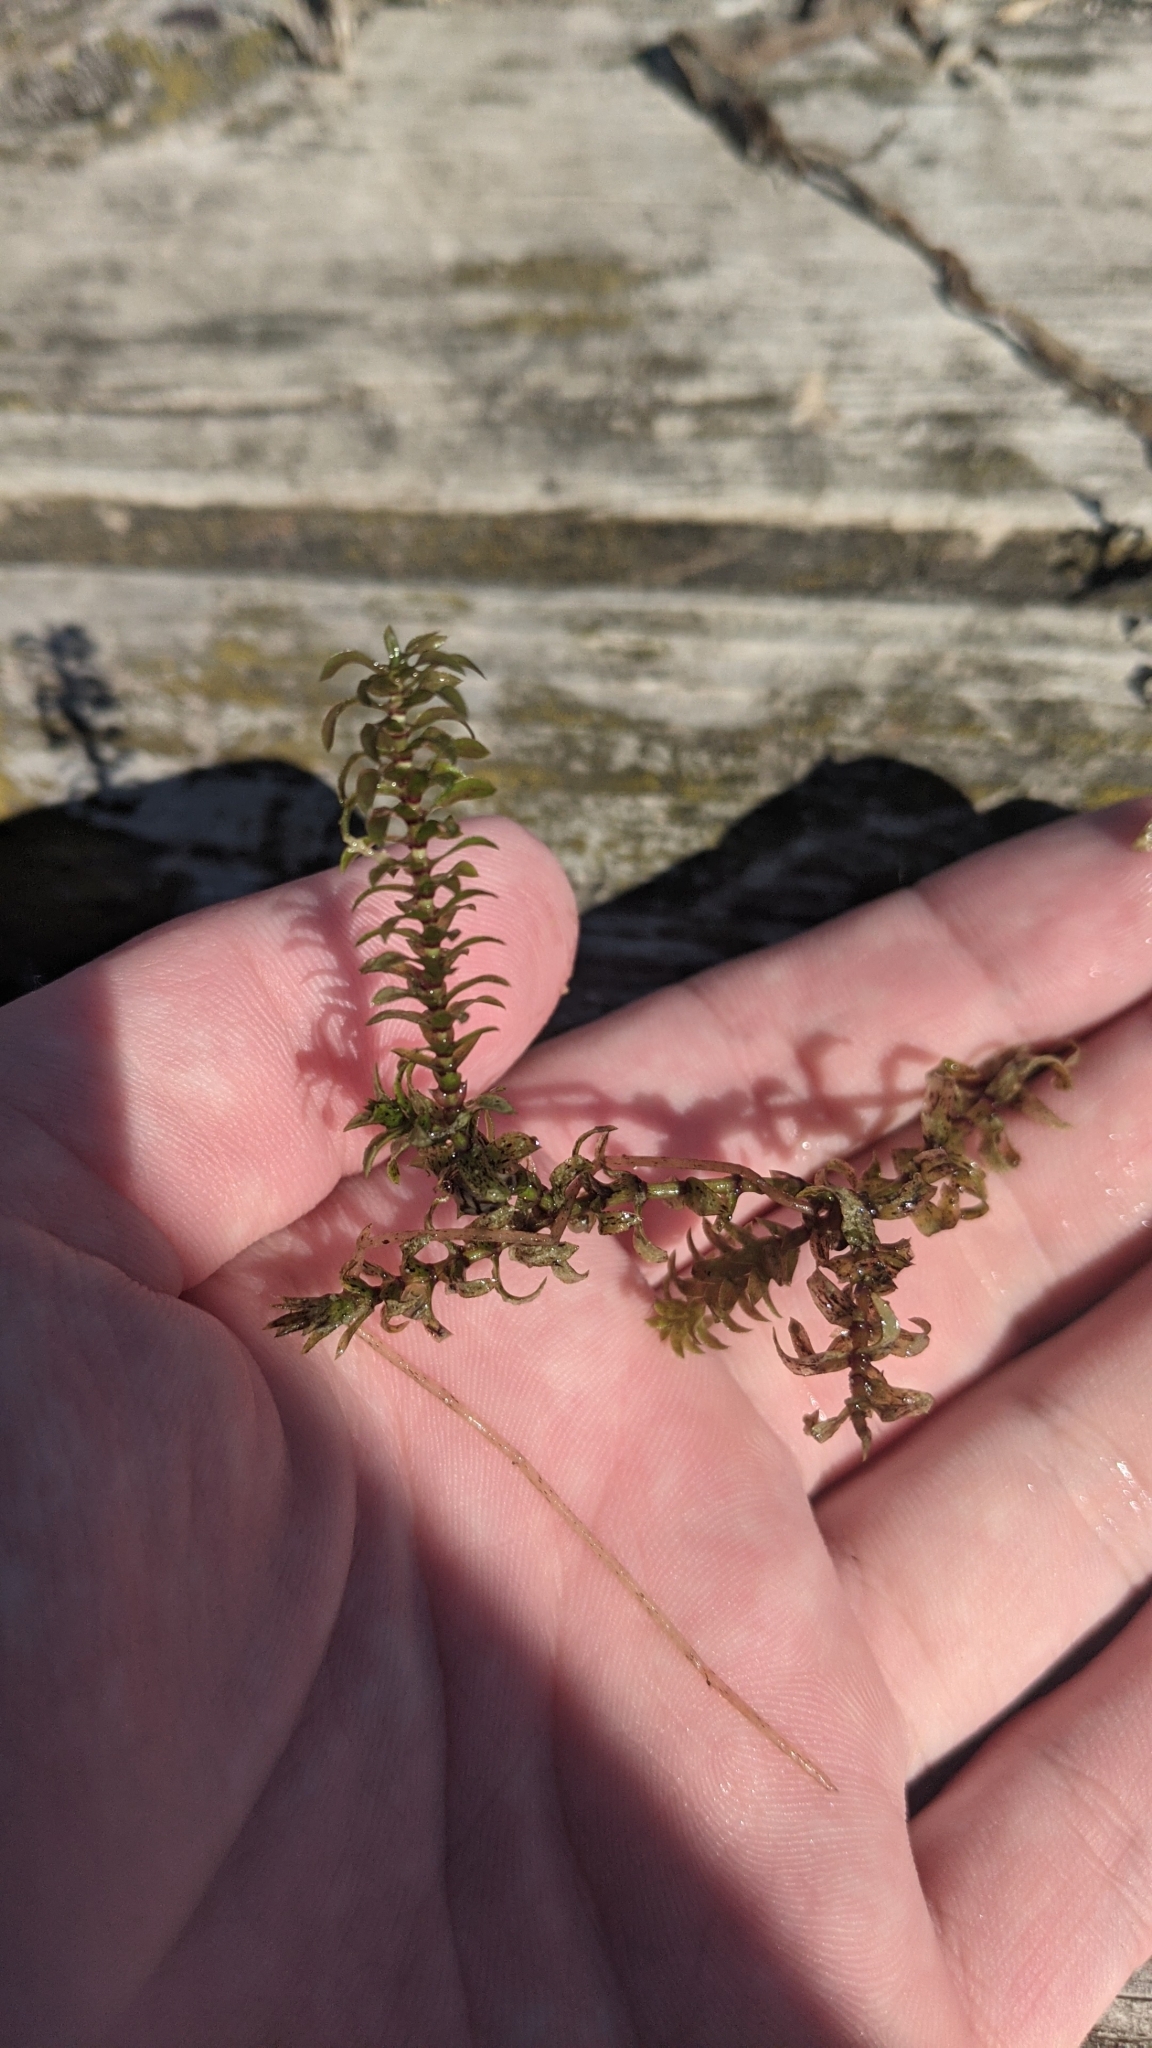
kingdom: Plantae
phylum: Tracheophyta
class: Liliopsida
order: Alismatales
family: Hydrocharitaceae
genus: Elodea
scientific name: Elodea canadensis
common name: Canadian waterweed
